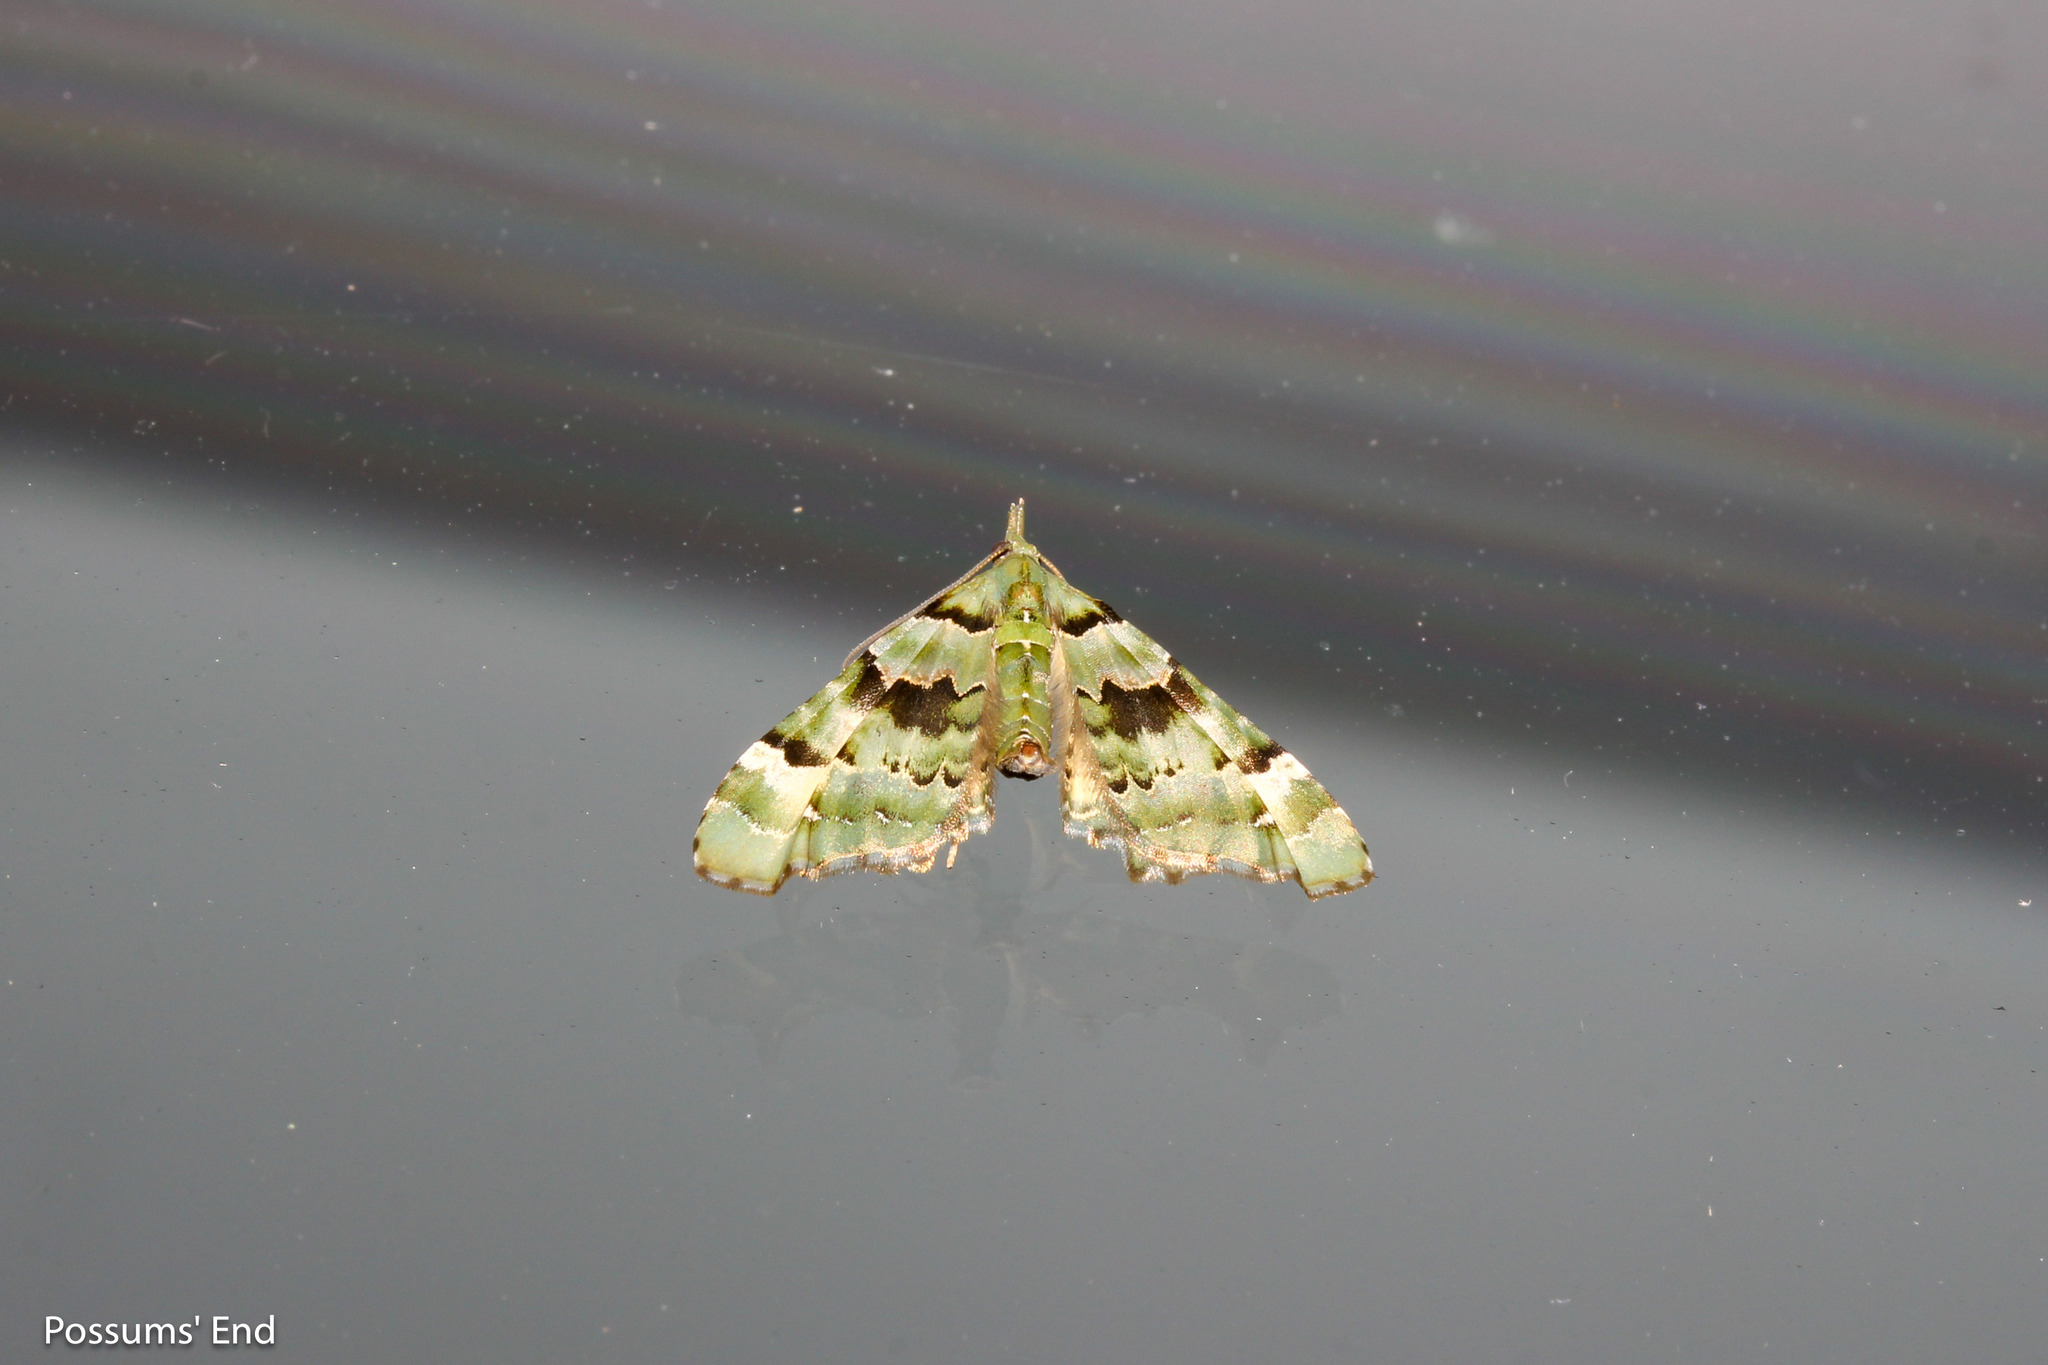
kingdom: Animalia
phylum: Arthropoda
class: Insecta
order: Lepidoptera
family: Geometridae
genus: Elvia
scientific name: Elvia glaucata
